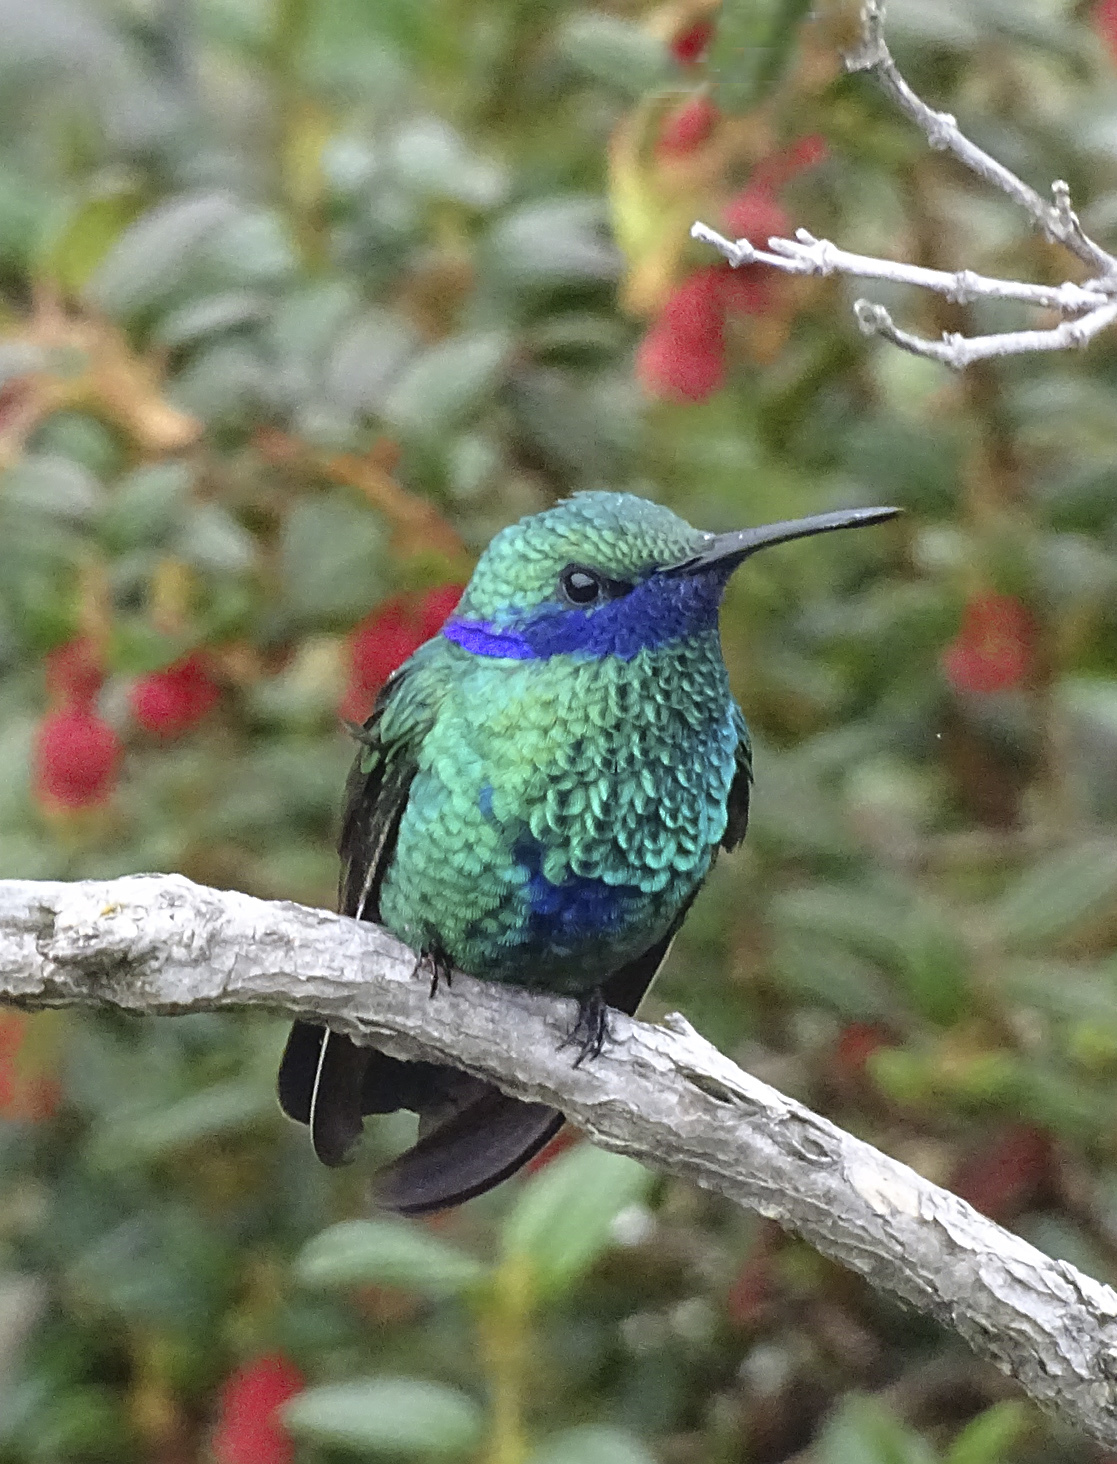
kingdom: Animalia
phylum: Chordata
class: Aves
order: Apodiformes
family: Trochilidae
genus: Colibri
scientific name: Colibri coruscans
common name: Sparkling violetear
